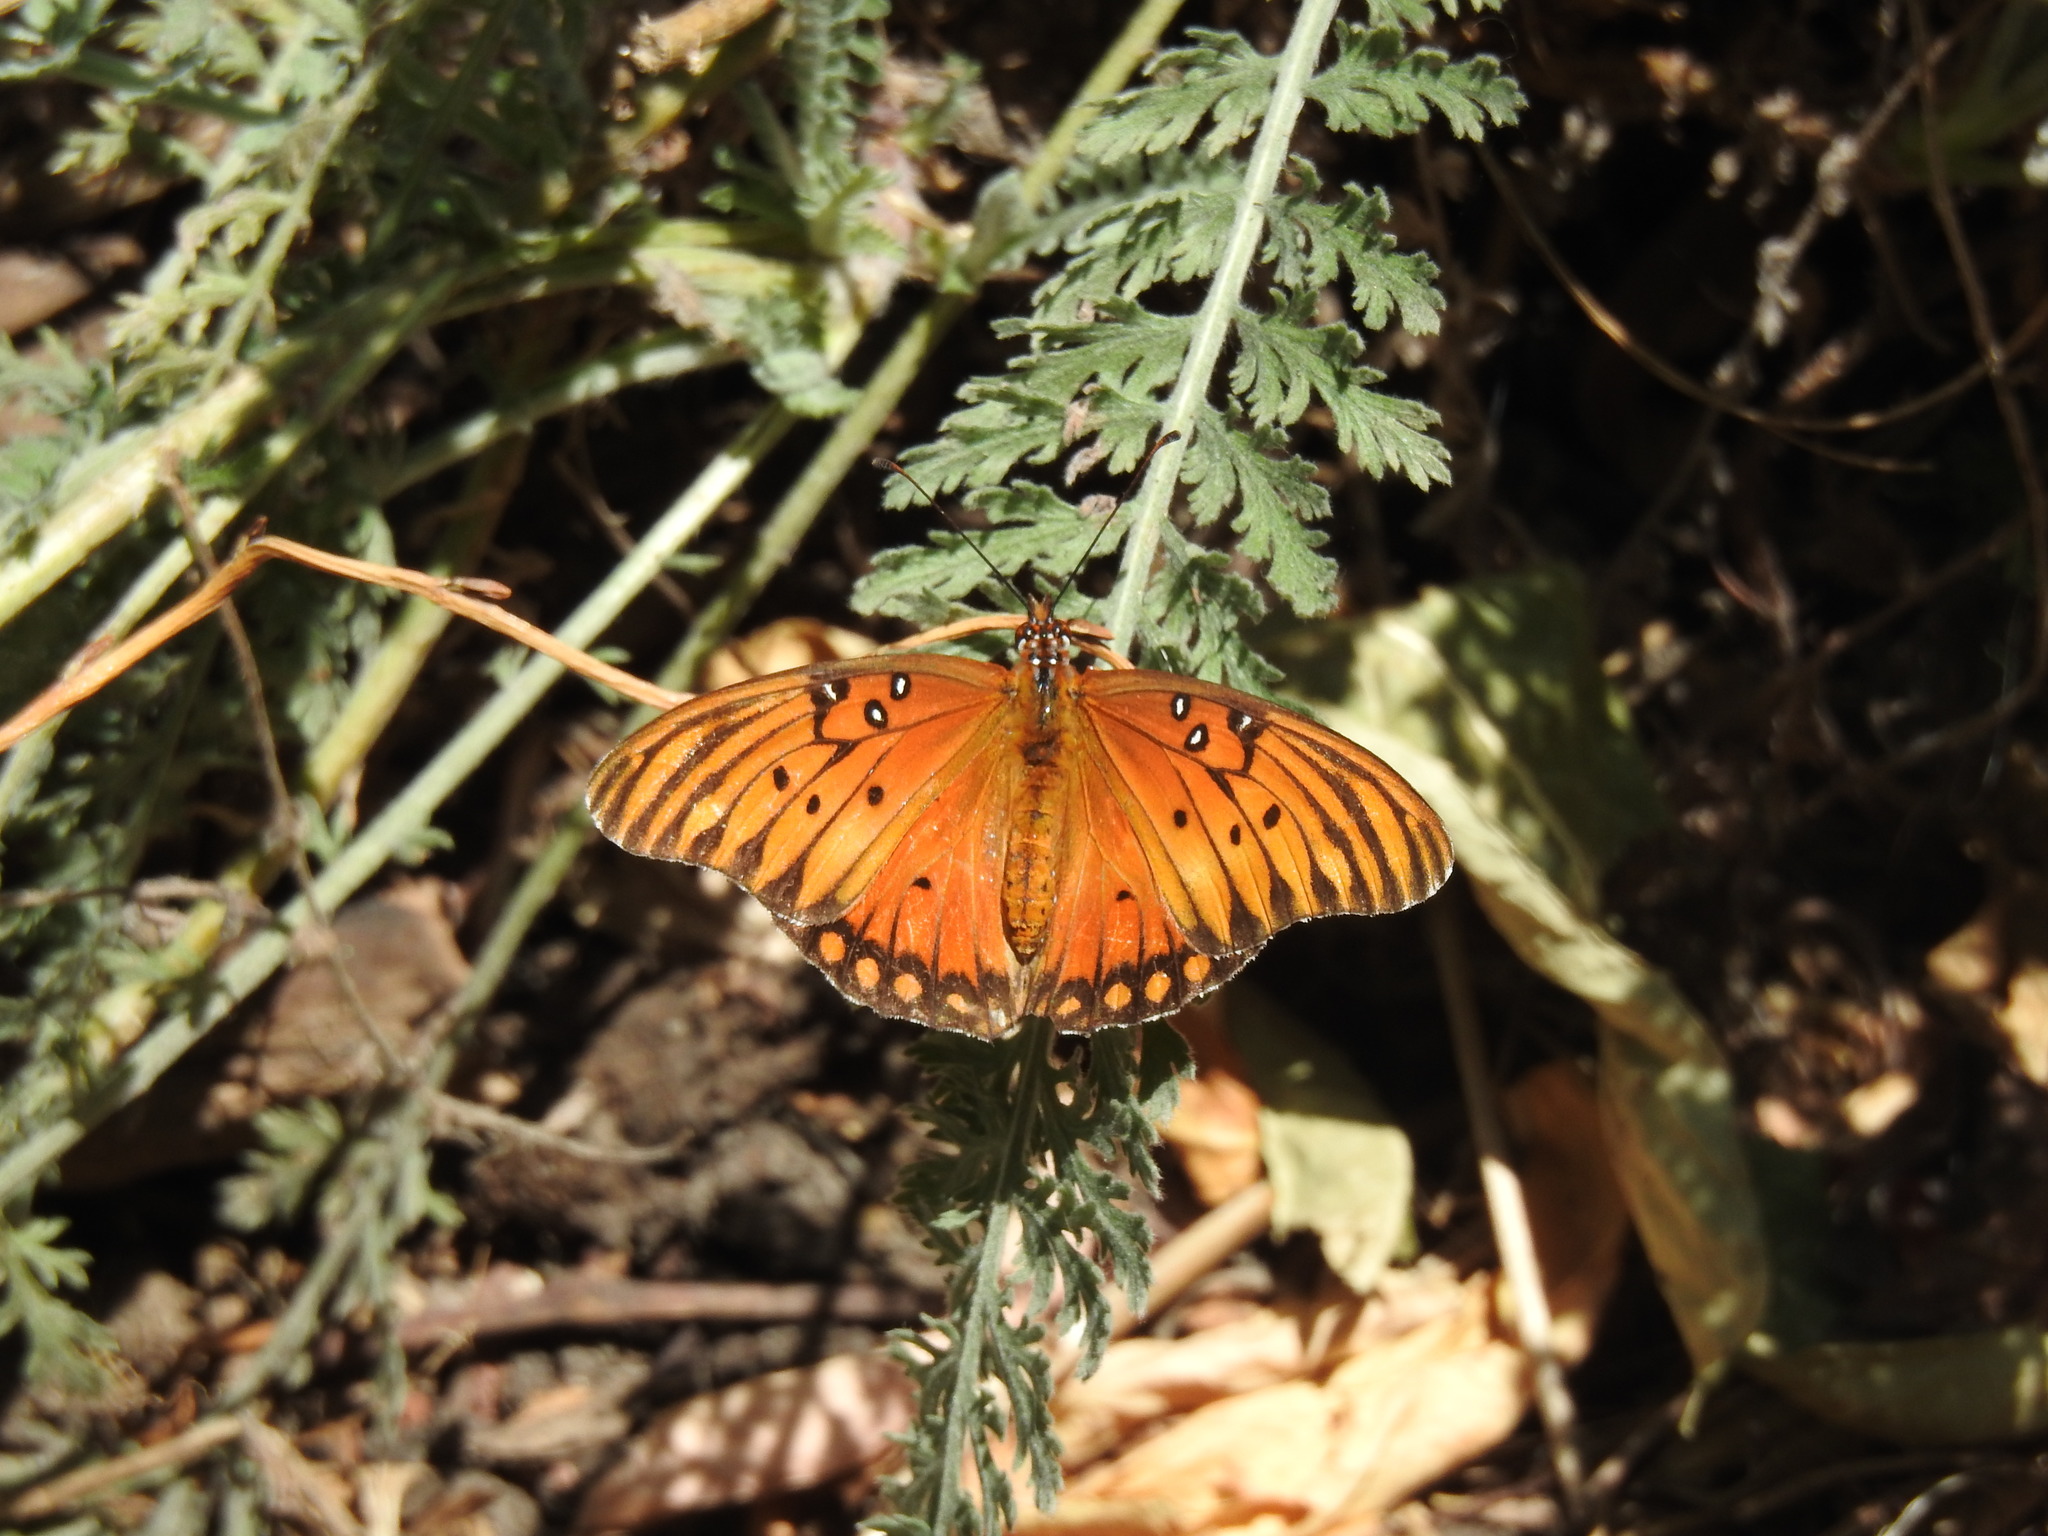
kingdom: Animalia
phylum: Arthropoda
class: Insecta
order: Lepidoptera
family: Nymphalidae
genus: Dione
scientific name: Dione vanillae
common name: Gulf fritillary
